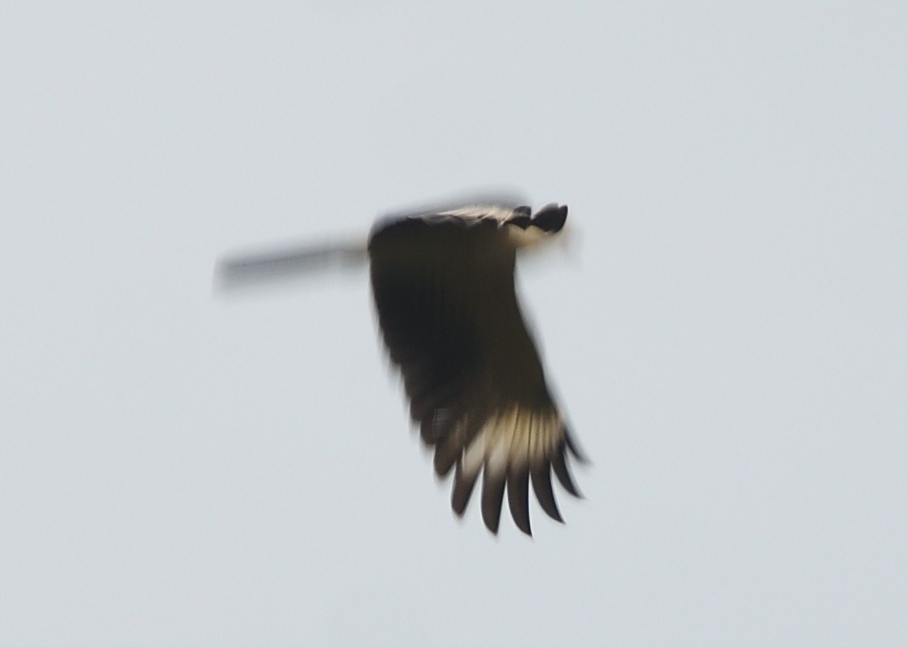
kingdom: Animalia
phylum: Chordata
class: Aves
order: Passeriformes
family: Thraupidae
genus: Cissopis
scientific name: Cissopis leverianus
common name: Magpie tanager
